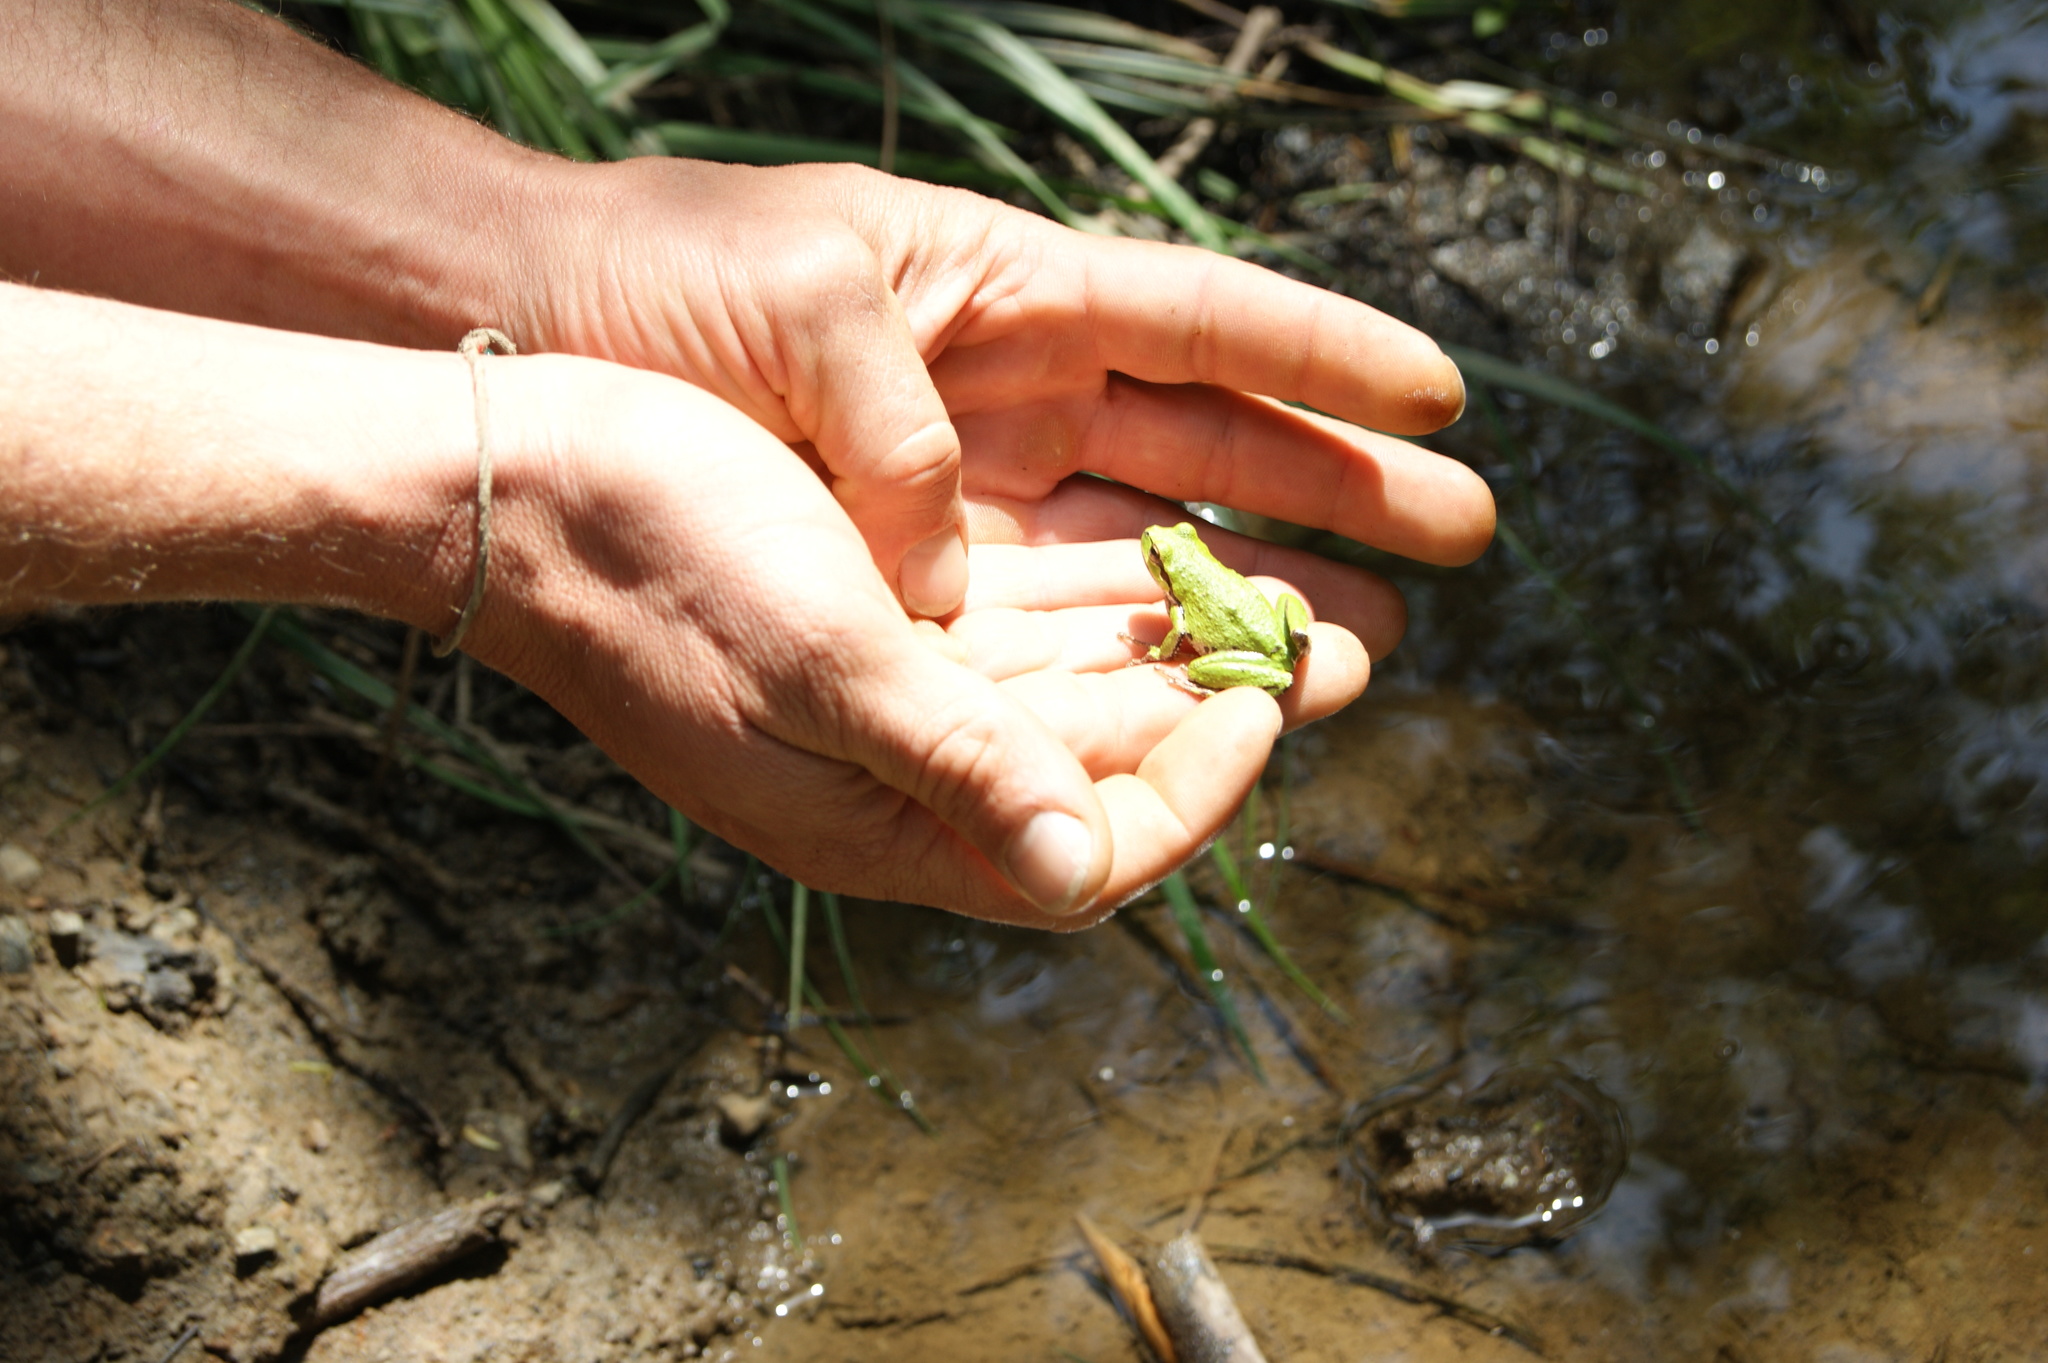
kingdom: Animalia
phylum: Chordata
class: Amphibia
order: Anura
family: Hylidae
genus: Pseudacris
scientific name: Pseudacris regilla
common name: Pacific chorus frog
